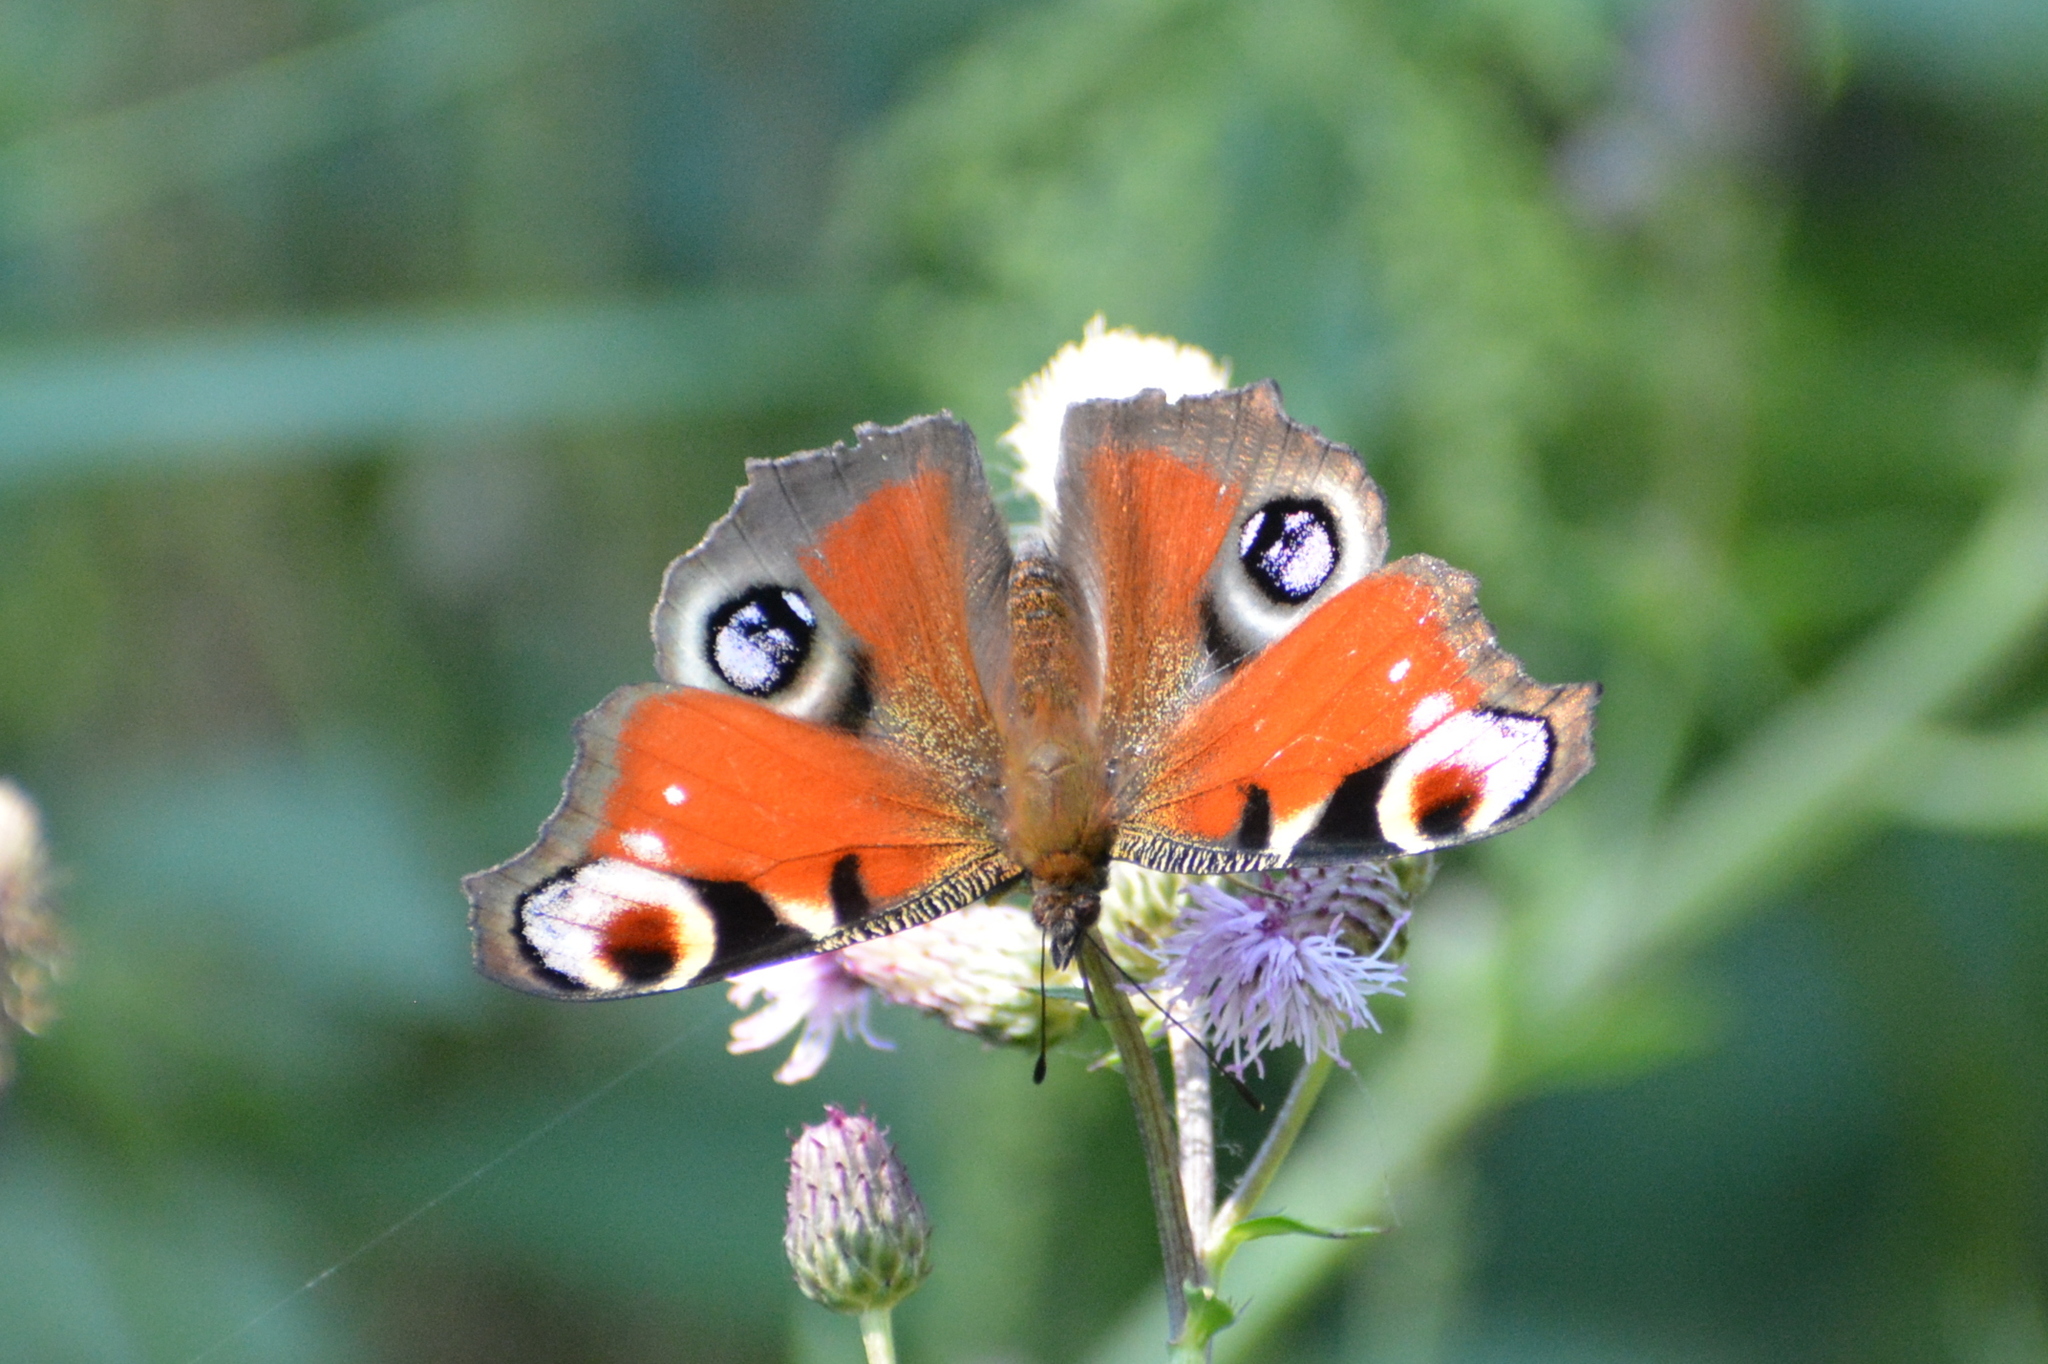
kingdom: Animalia
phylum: Arthropoda
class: Insecta
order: Lepidoptera
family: Nymphalidae
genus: Aglais
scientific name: Aglais io
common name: Peacock
